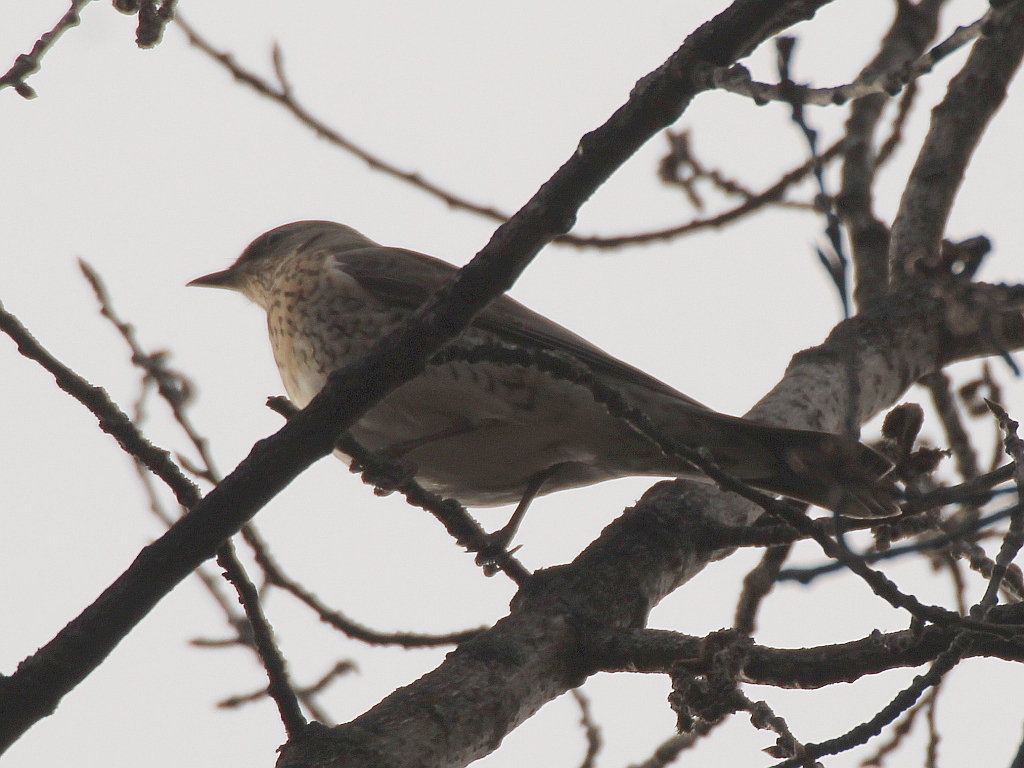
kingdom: Animalia
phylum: Chordata
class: Aves
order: Passeriformes
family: Turdidae
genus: Turdus
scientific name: Turdus pilaris
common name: Fieldfare
